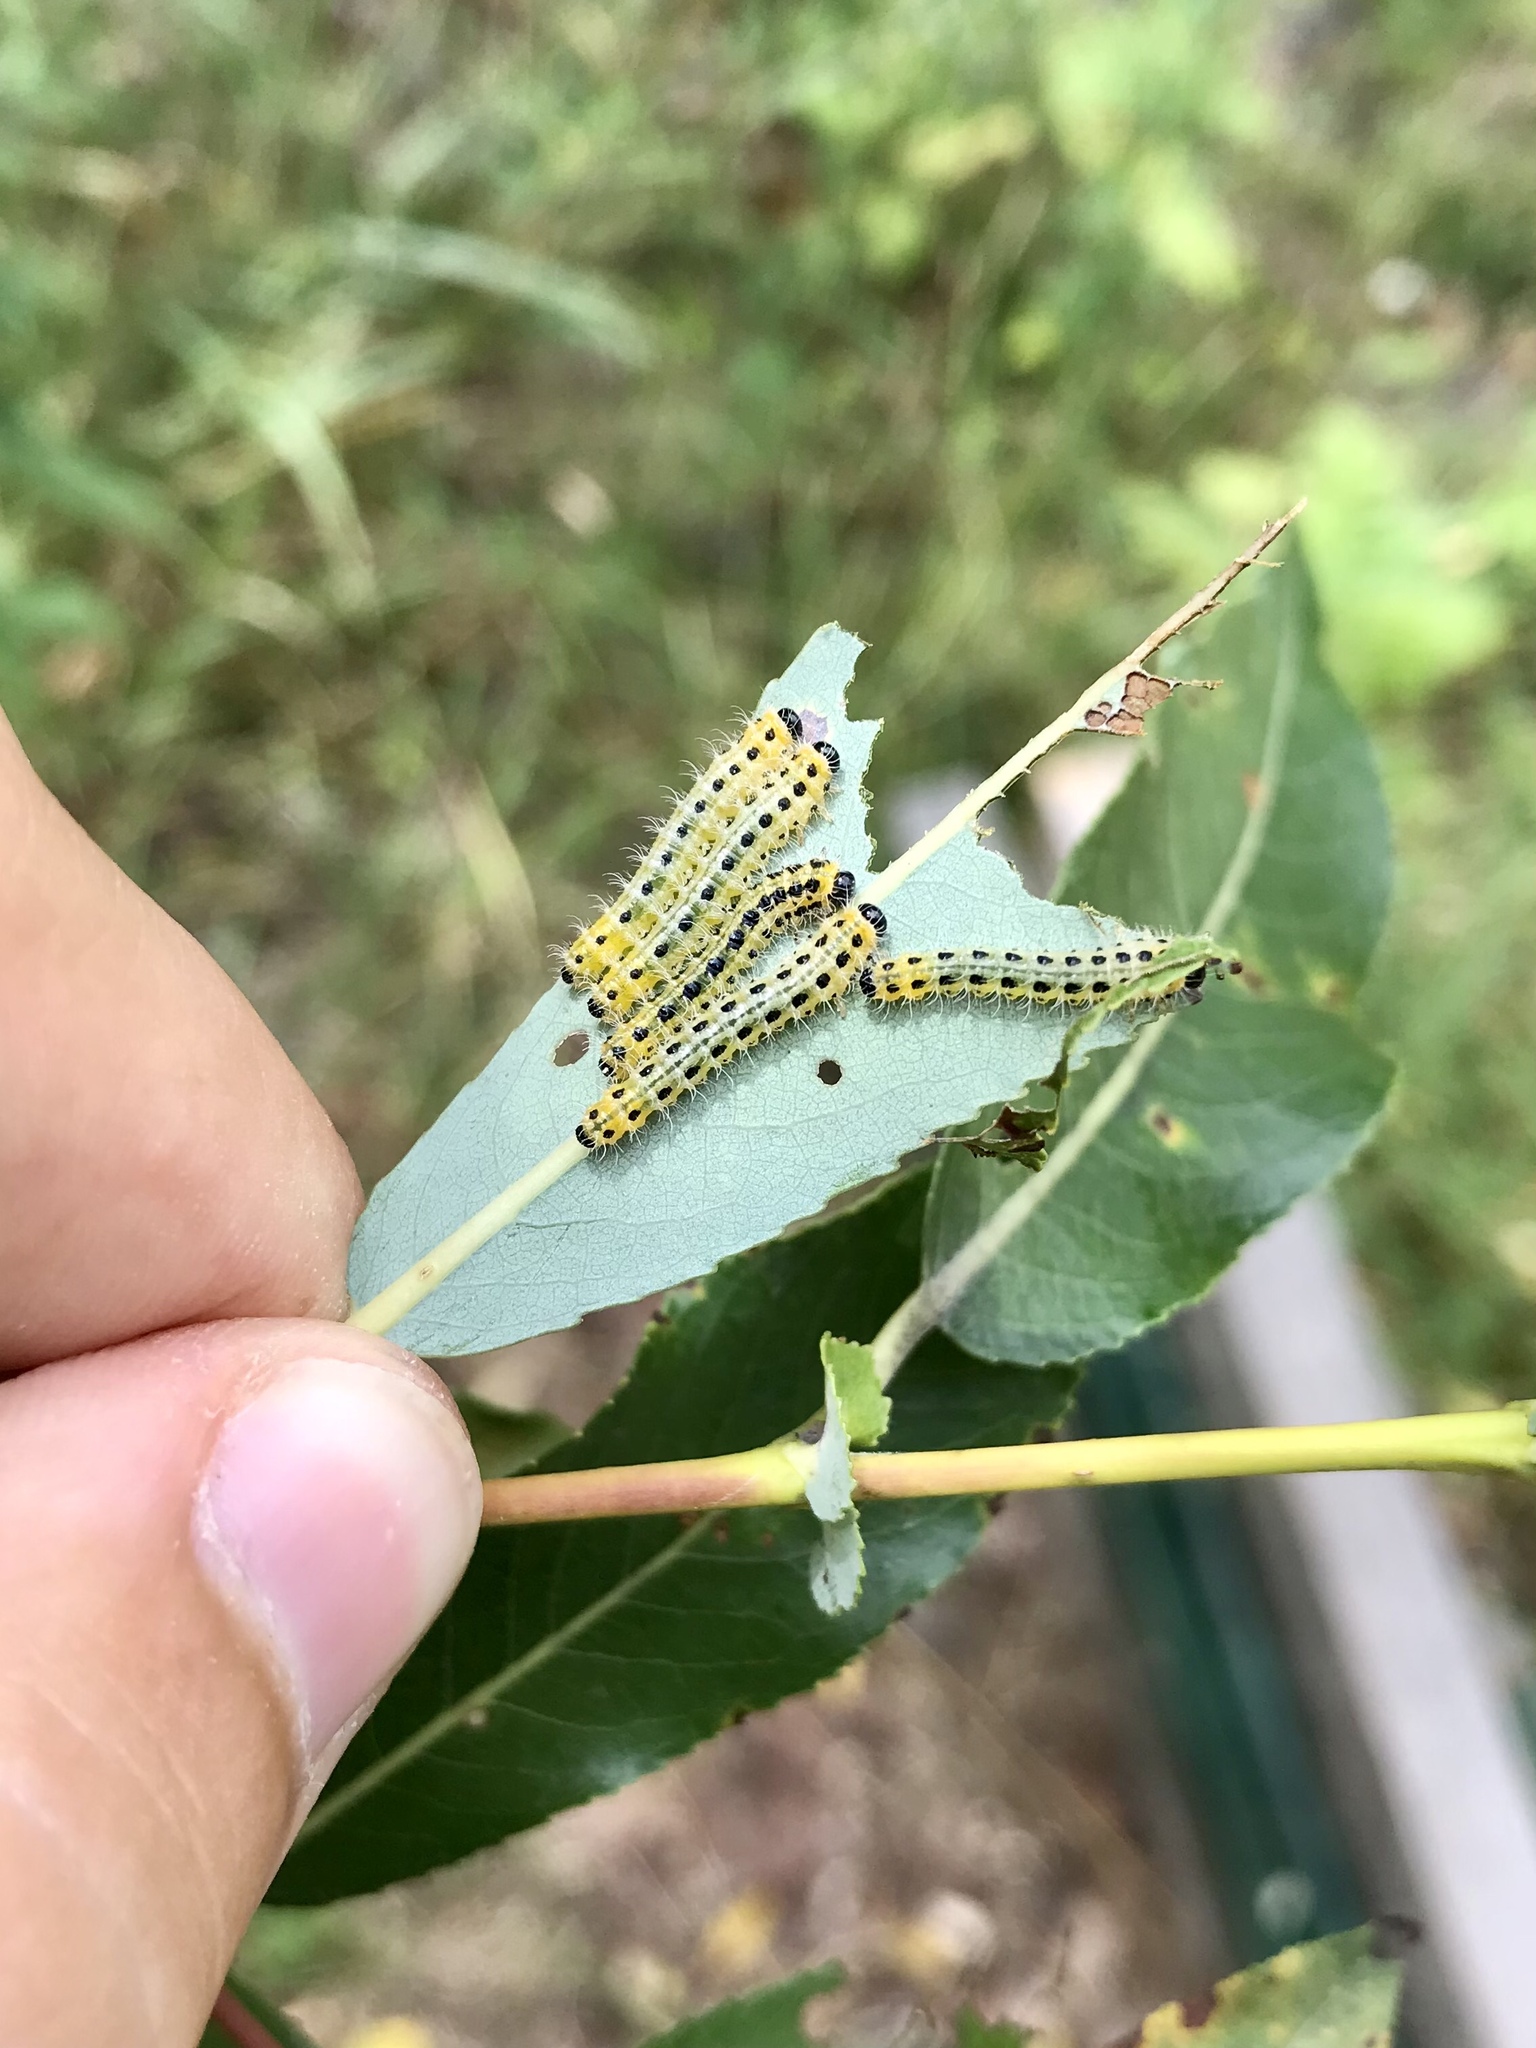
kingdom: Animalia
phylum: Arthropoda
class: Insecta
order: Hymenoptera
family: Tenthredinidae
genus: Cladius
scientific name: Cladius grandis
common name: Common sawfly
